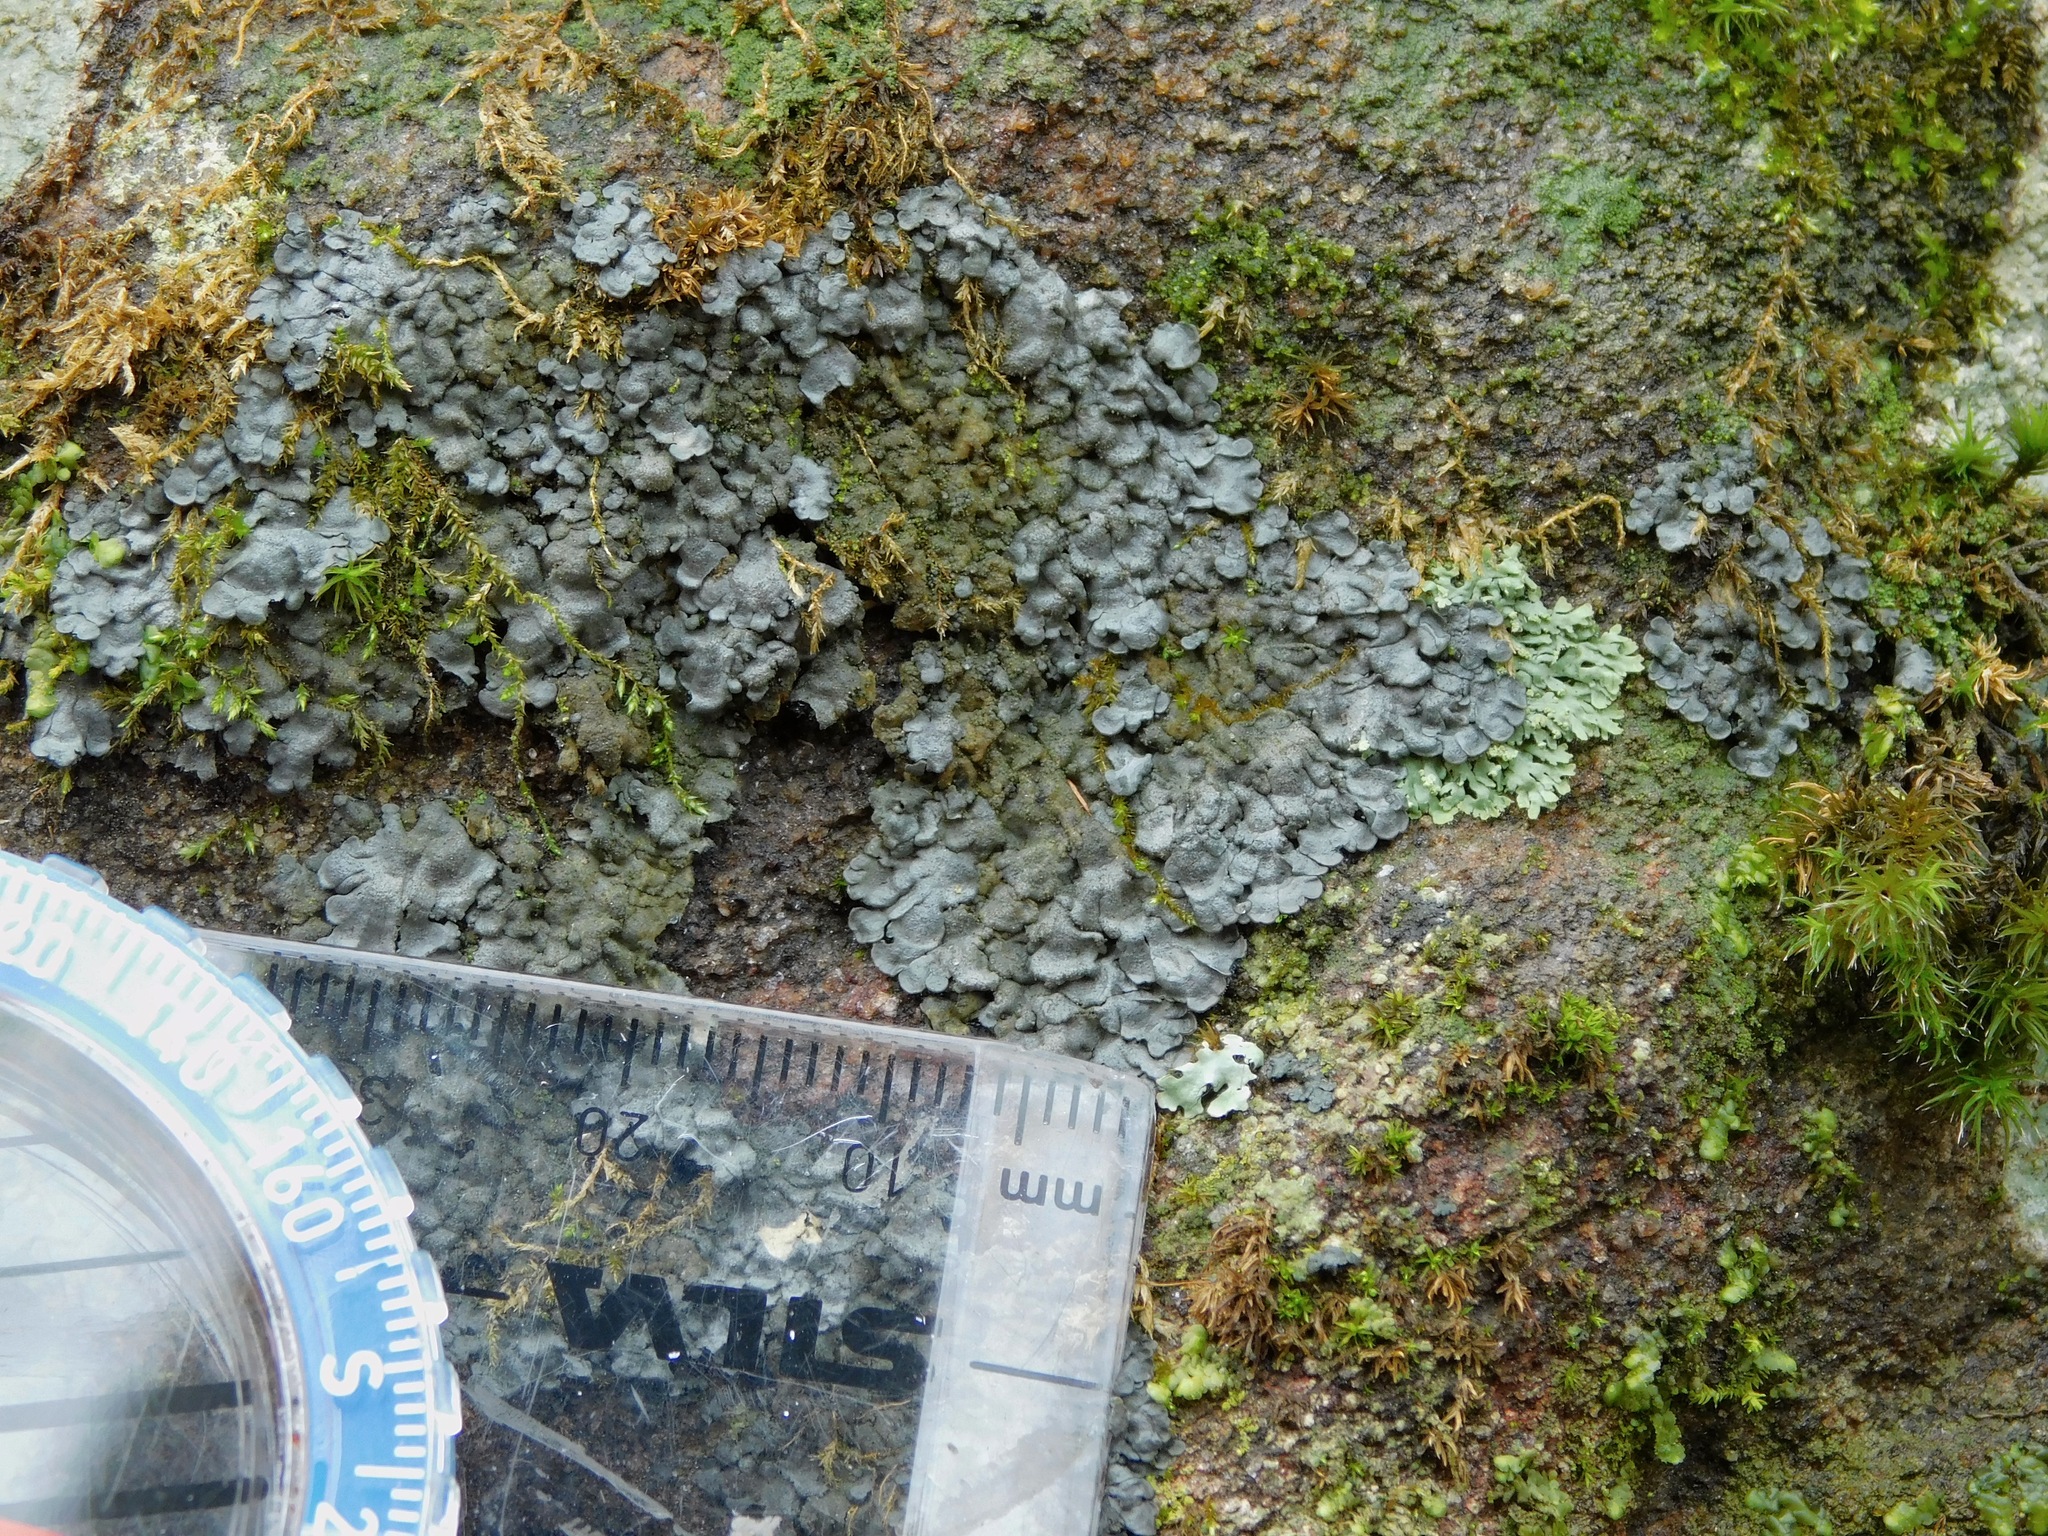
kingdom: Fungi
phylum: Ascomycota
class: Lecanoromycetes
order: Peltigerales
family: Pannariaceae
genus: Pannaria
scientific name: Pannaria conoplea
